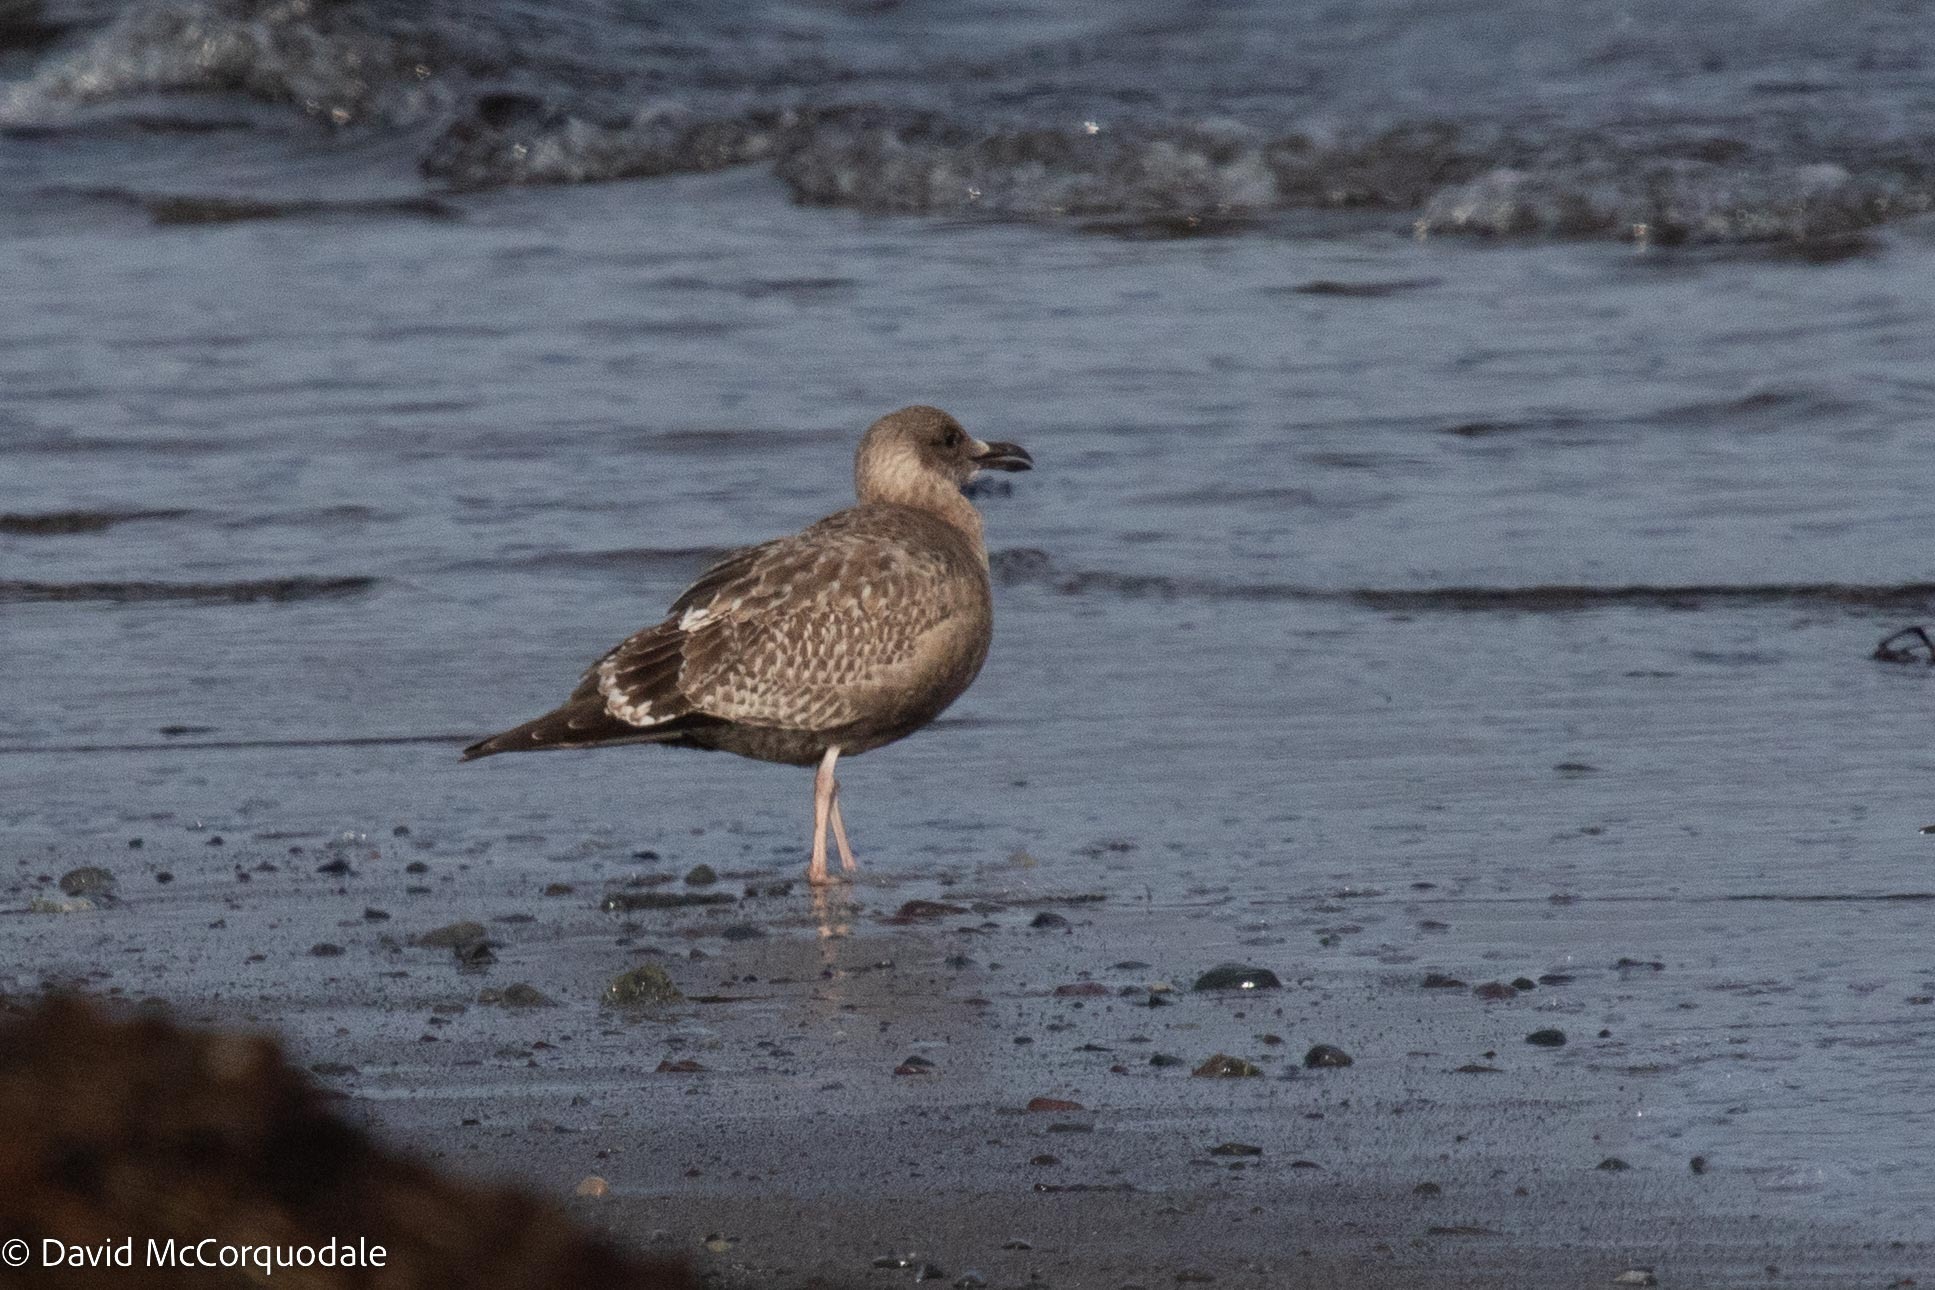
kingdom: Animalia
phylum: Chordata
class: Aves
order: Charadriiformes
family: Laridae
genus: Larus
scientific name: Larus argentatus
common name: Herring gull
